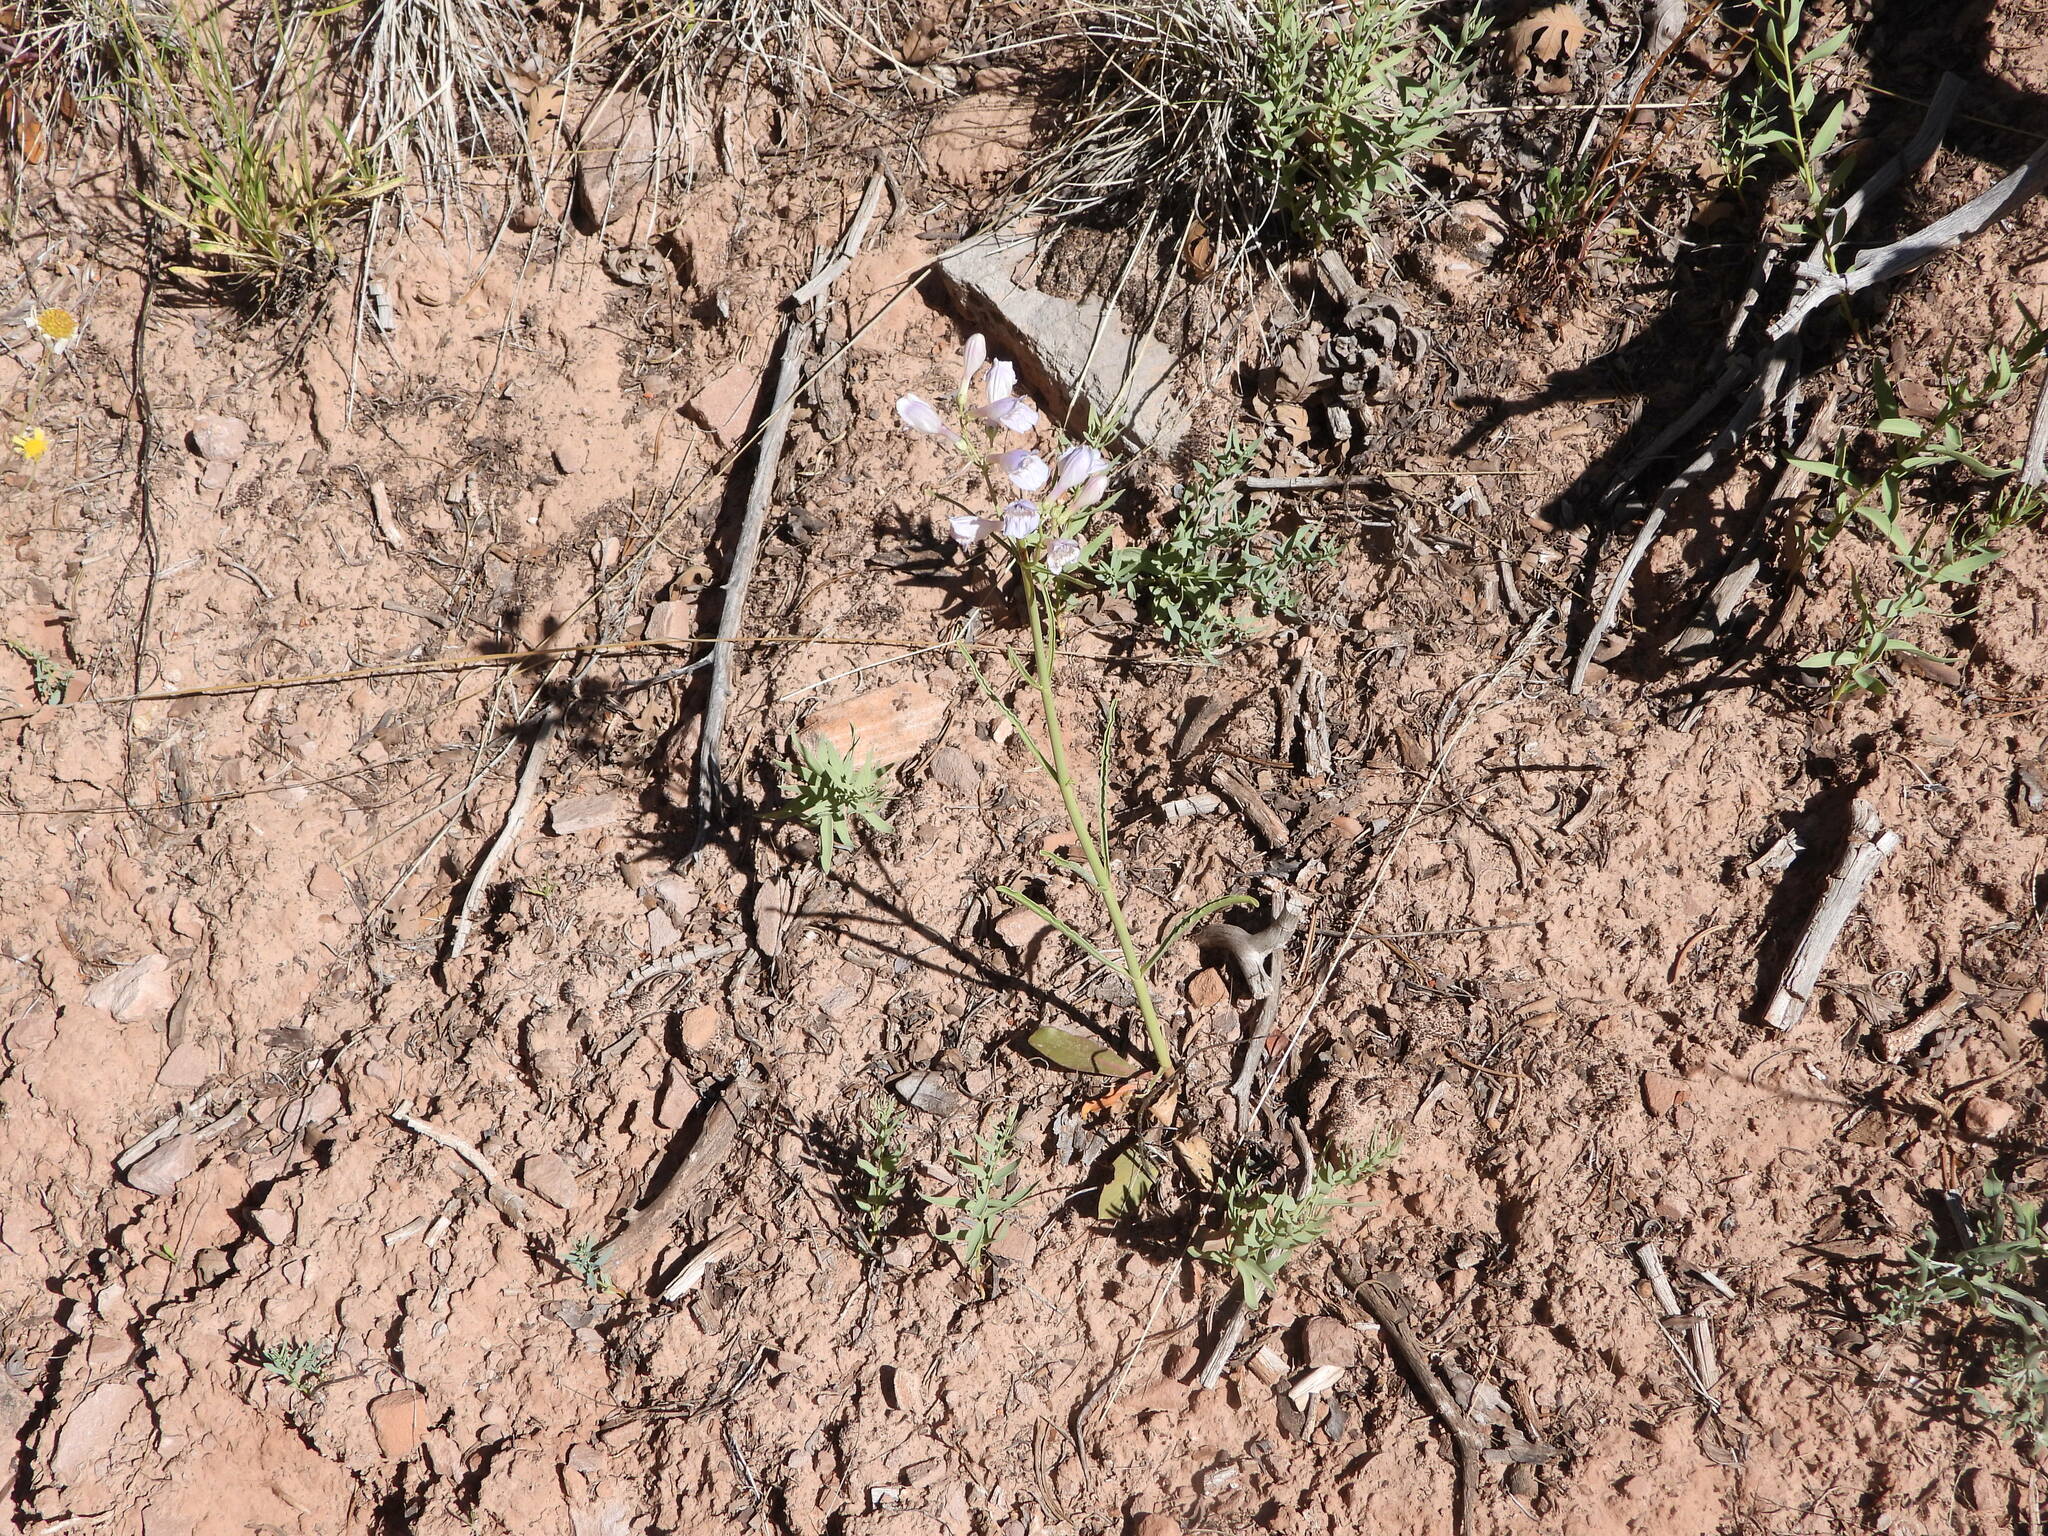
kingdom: Plantae
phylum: Tracheophyta
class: Magnoliopsida
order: Lamiales
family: Plantaginaceae
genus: Penstemon
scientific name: Penstemon comarrhenus
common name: Dusty penstemon
